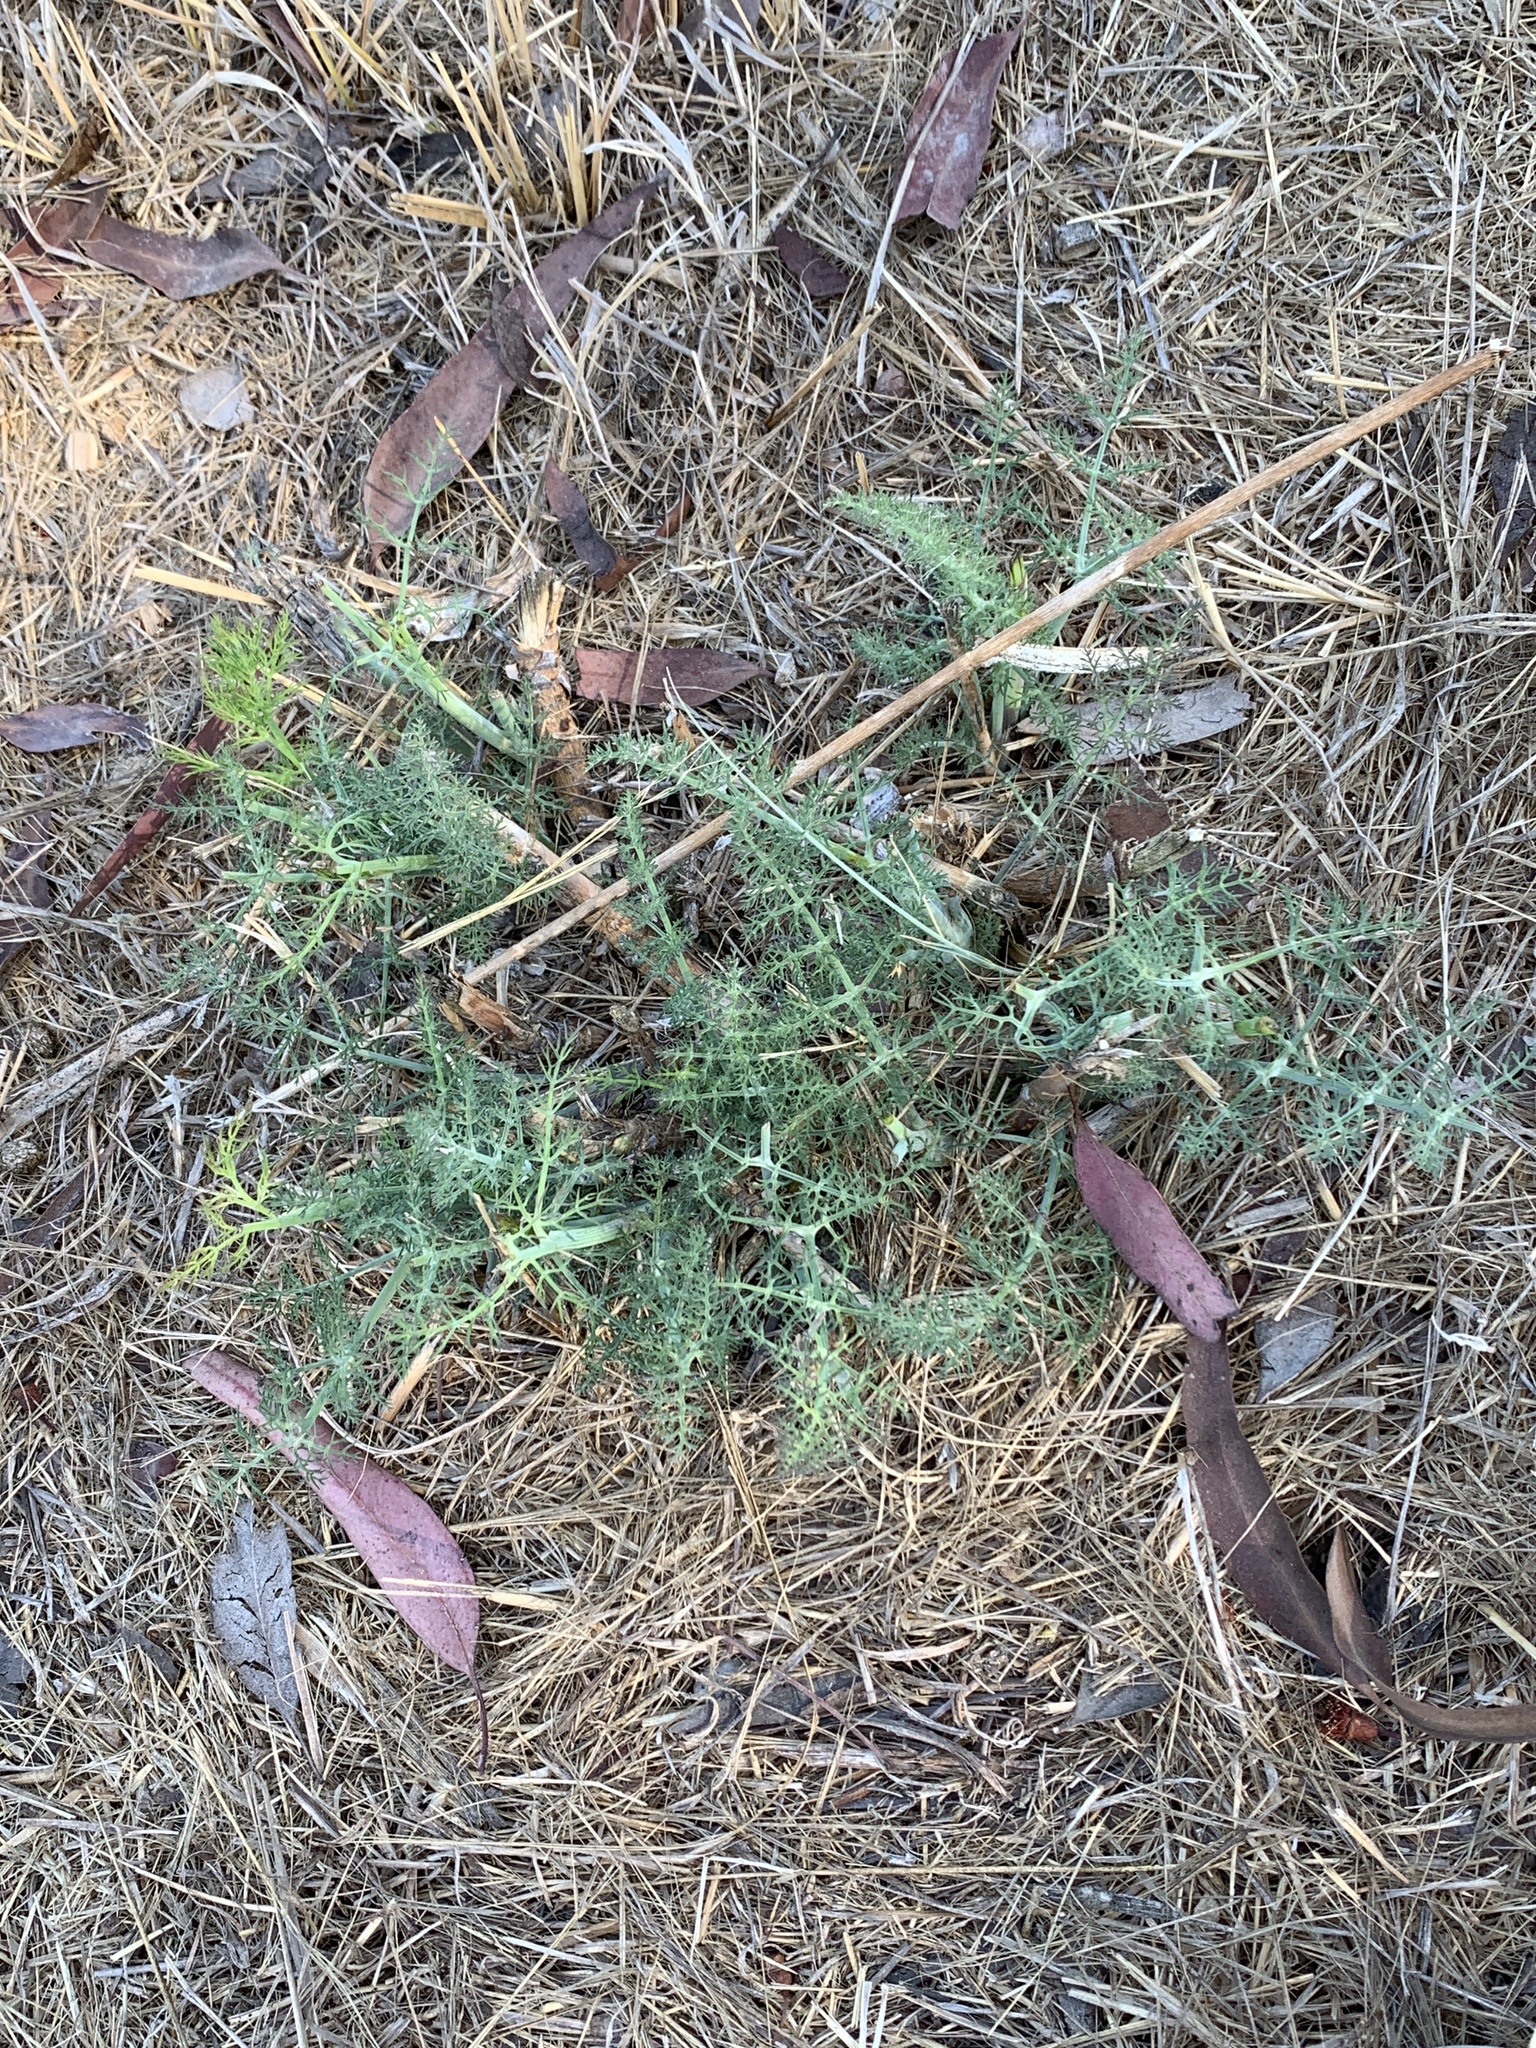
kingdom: Plantae
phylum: Tracheophyta
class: Magnoliopsida
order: Apiales
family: Apiaceae
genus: Foeniculum
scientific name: Foeniculum vulgare
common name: Fennel
